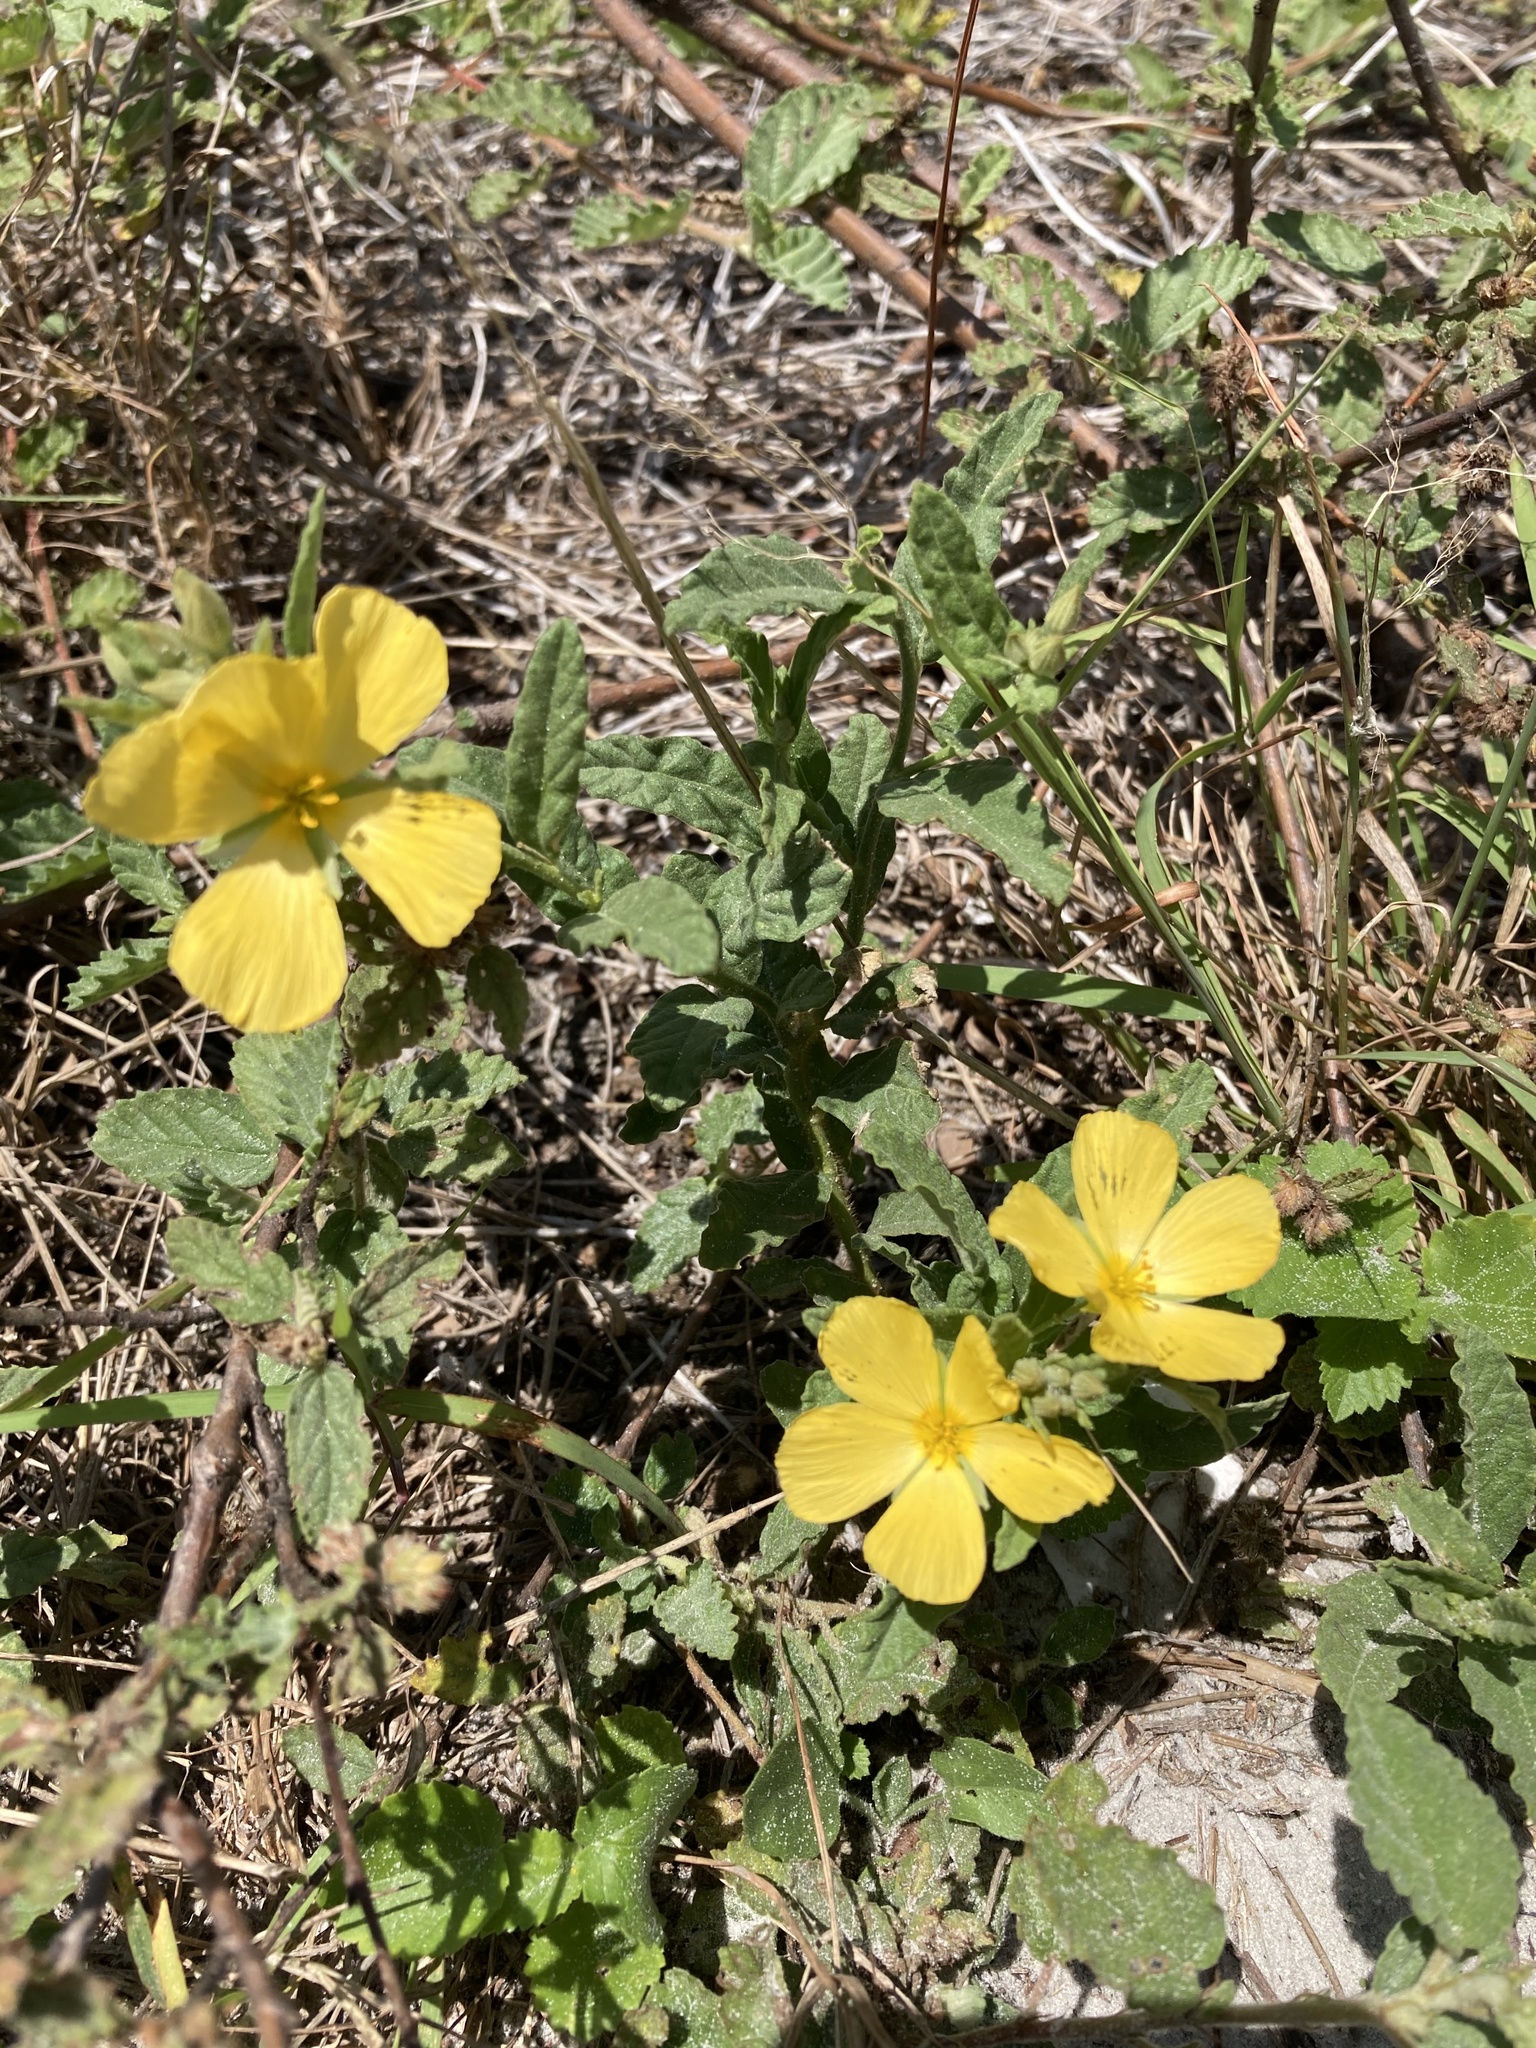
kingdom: Plantae
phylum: Tracheophyta
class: Magnoliopsida
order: Malpighiales
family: Turneraceae
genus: Piriqueta
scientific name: Piriqueta cistoides
